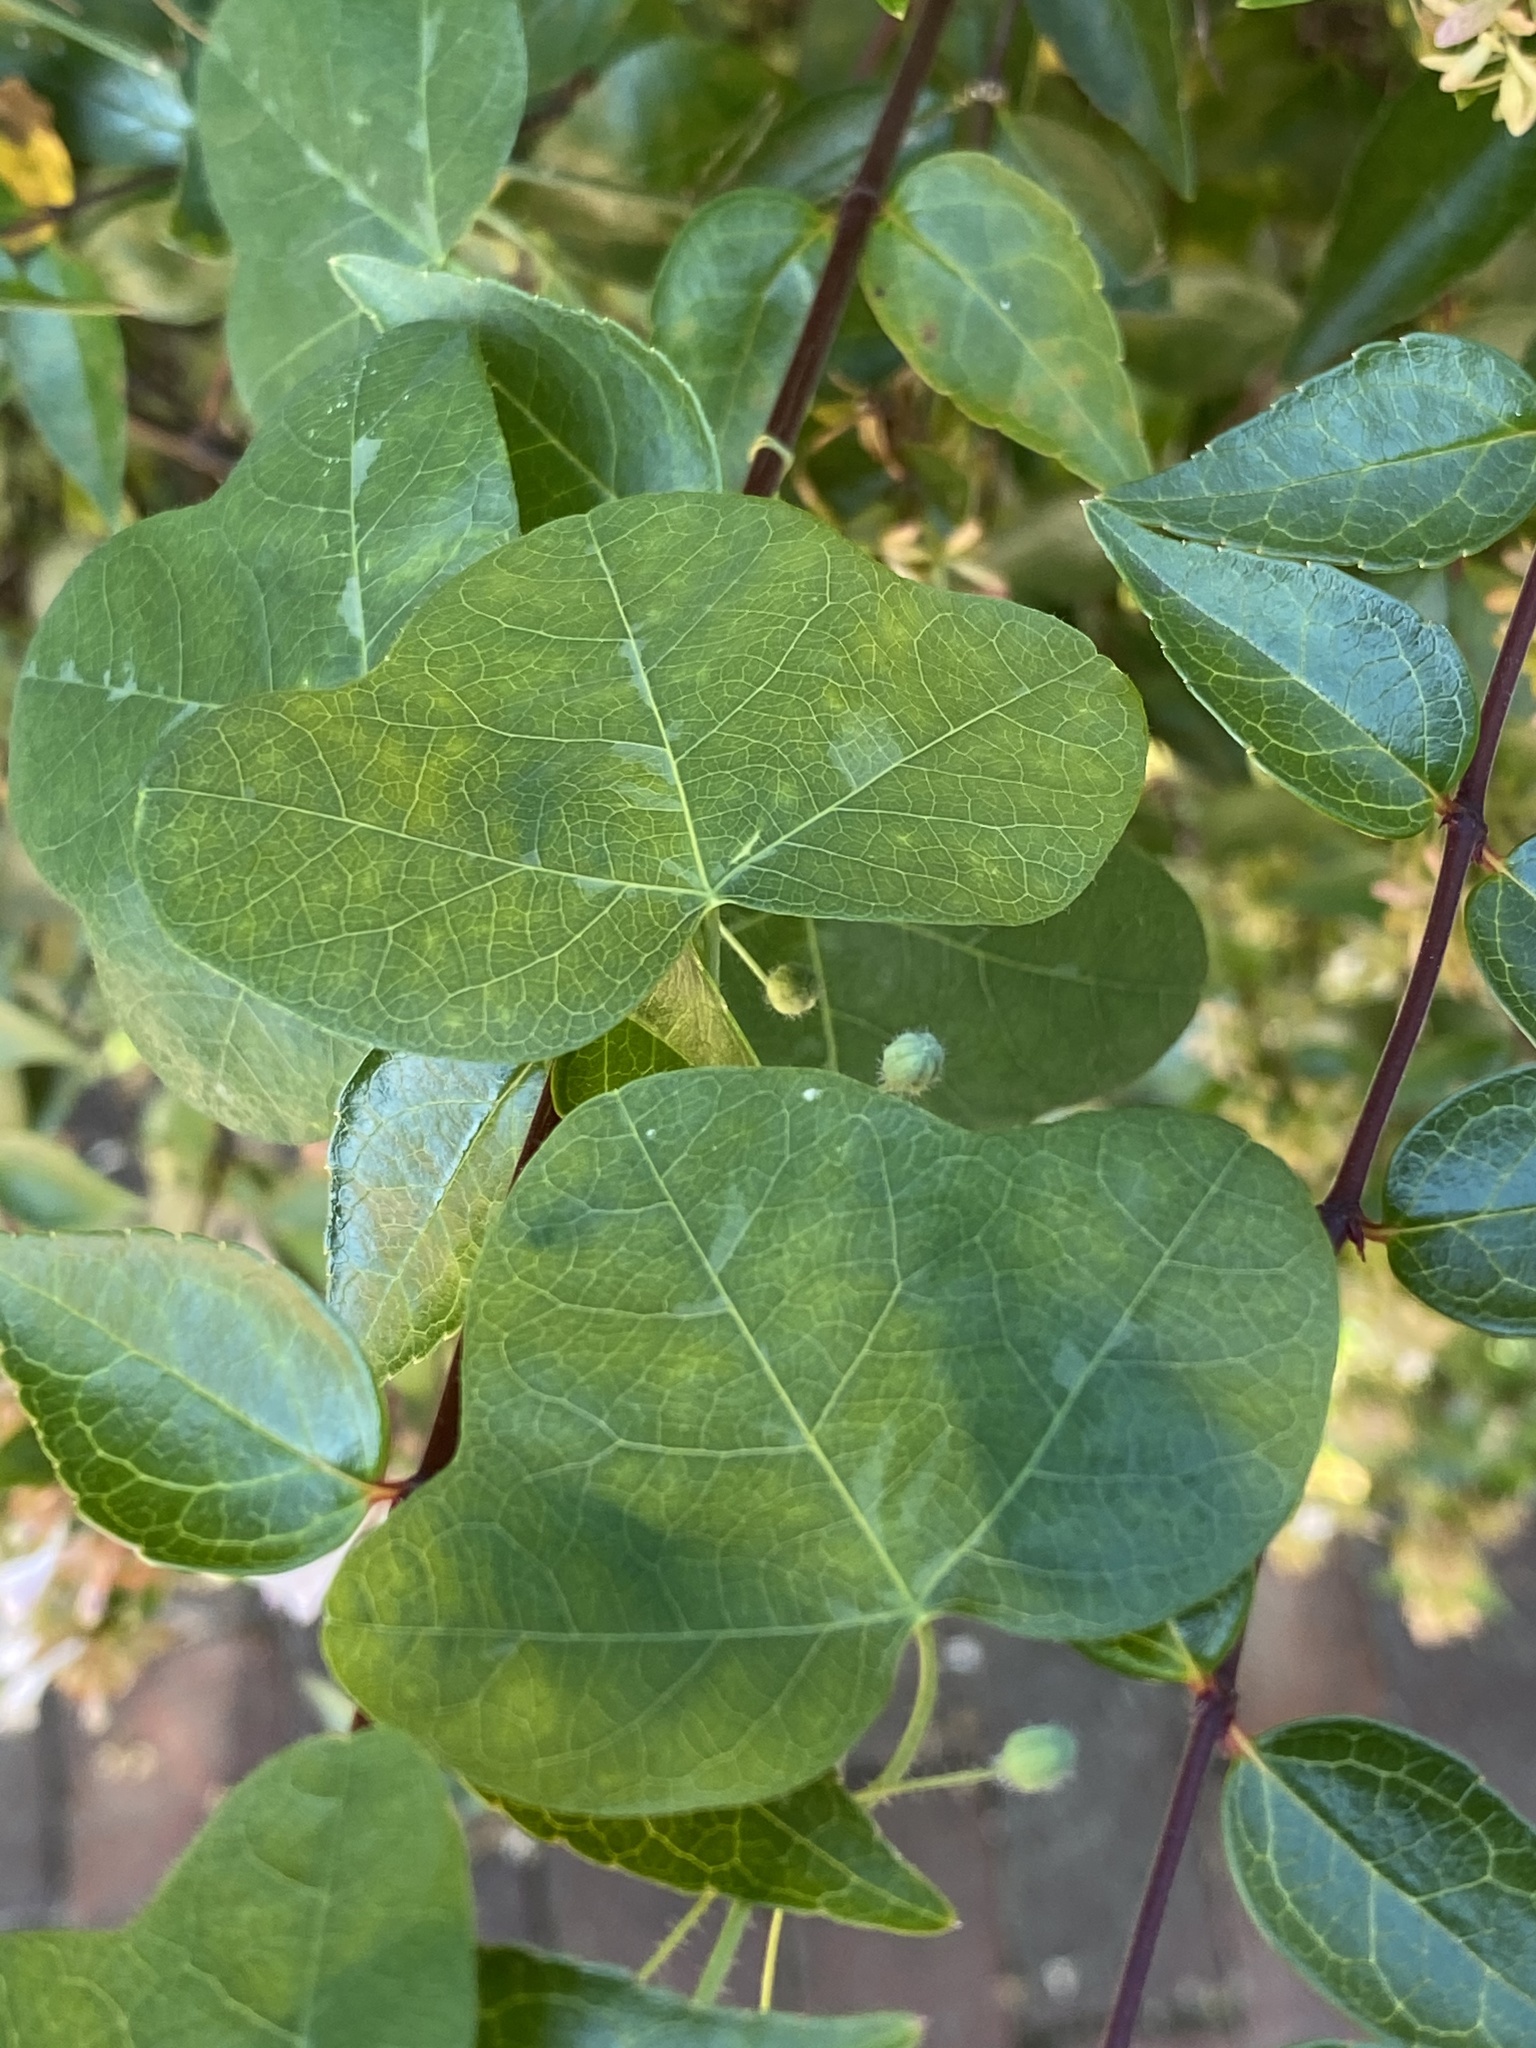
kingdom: Plantae
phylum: Tracheophyta
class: Magnoliopsida
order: Malpighiales
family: Passifloraceae
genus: Passiflora
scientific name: Passiflora lutea
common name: Yellow passionflower
